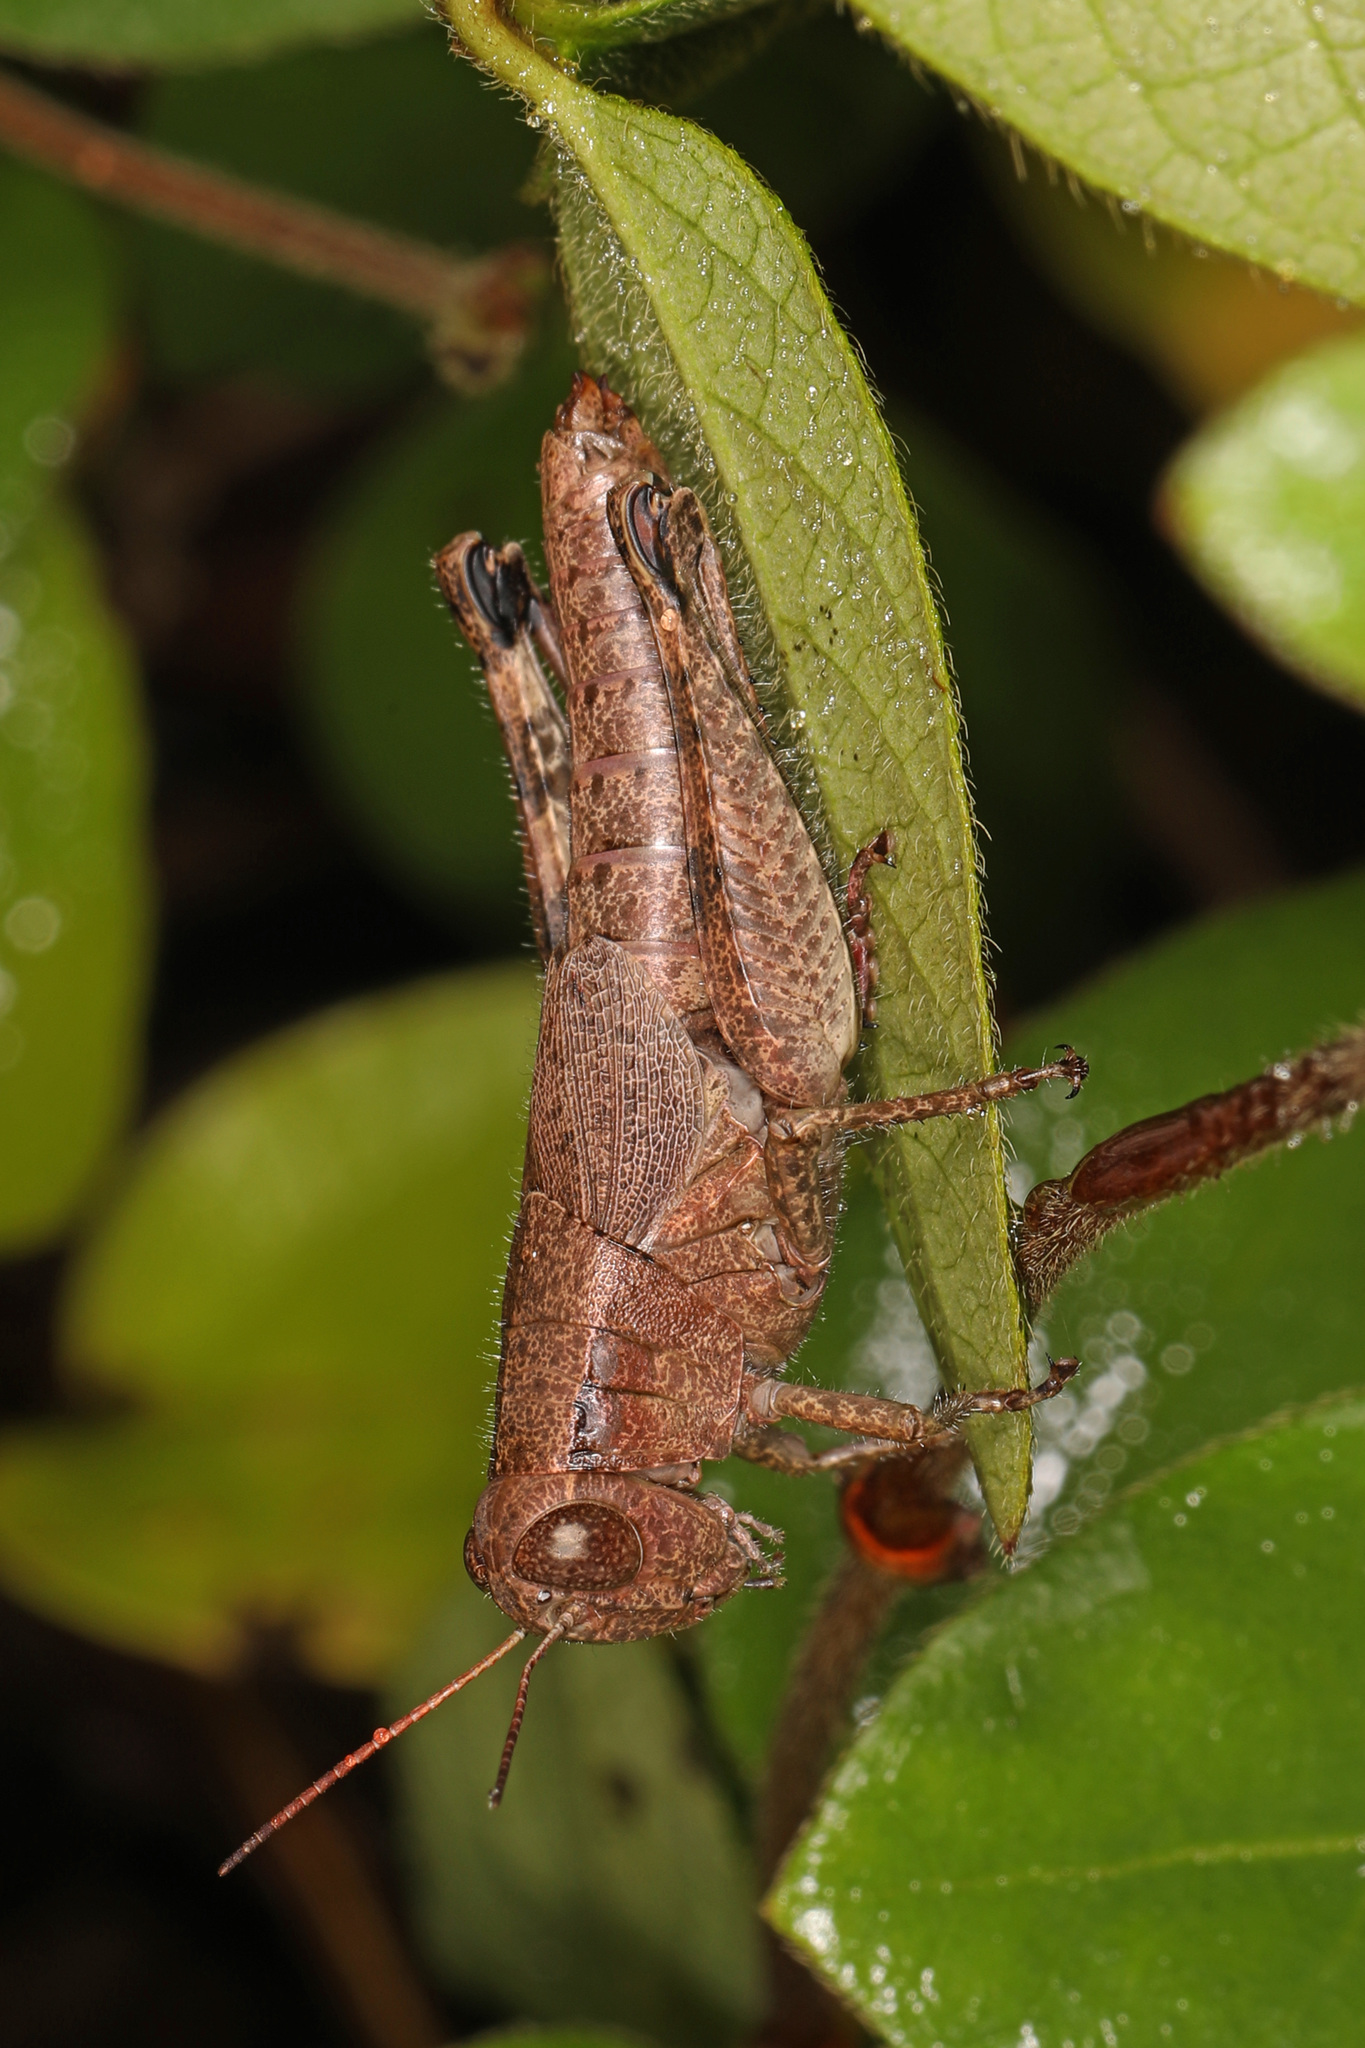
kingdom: Animalia
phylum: Arthropoda
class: Insecta
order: Orthoptera
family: Acrididae
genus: Melanoplus
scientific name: Melanoplus scudderi
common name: Scudder's short-winged locust
